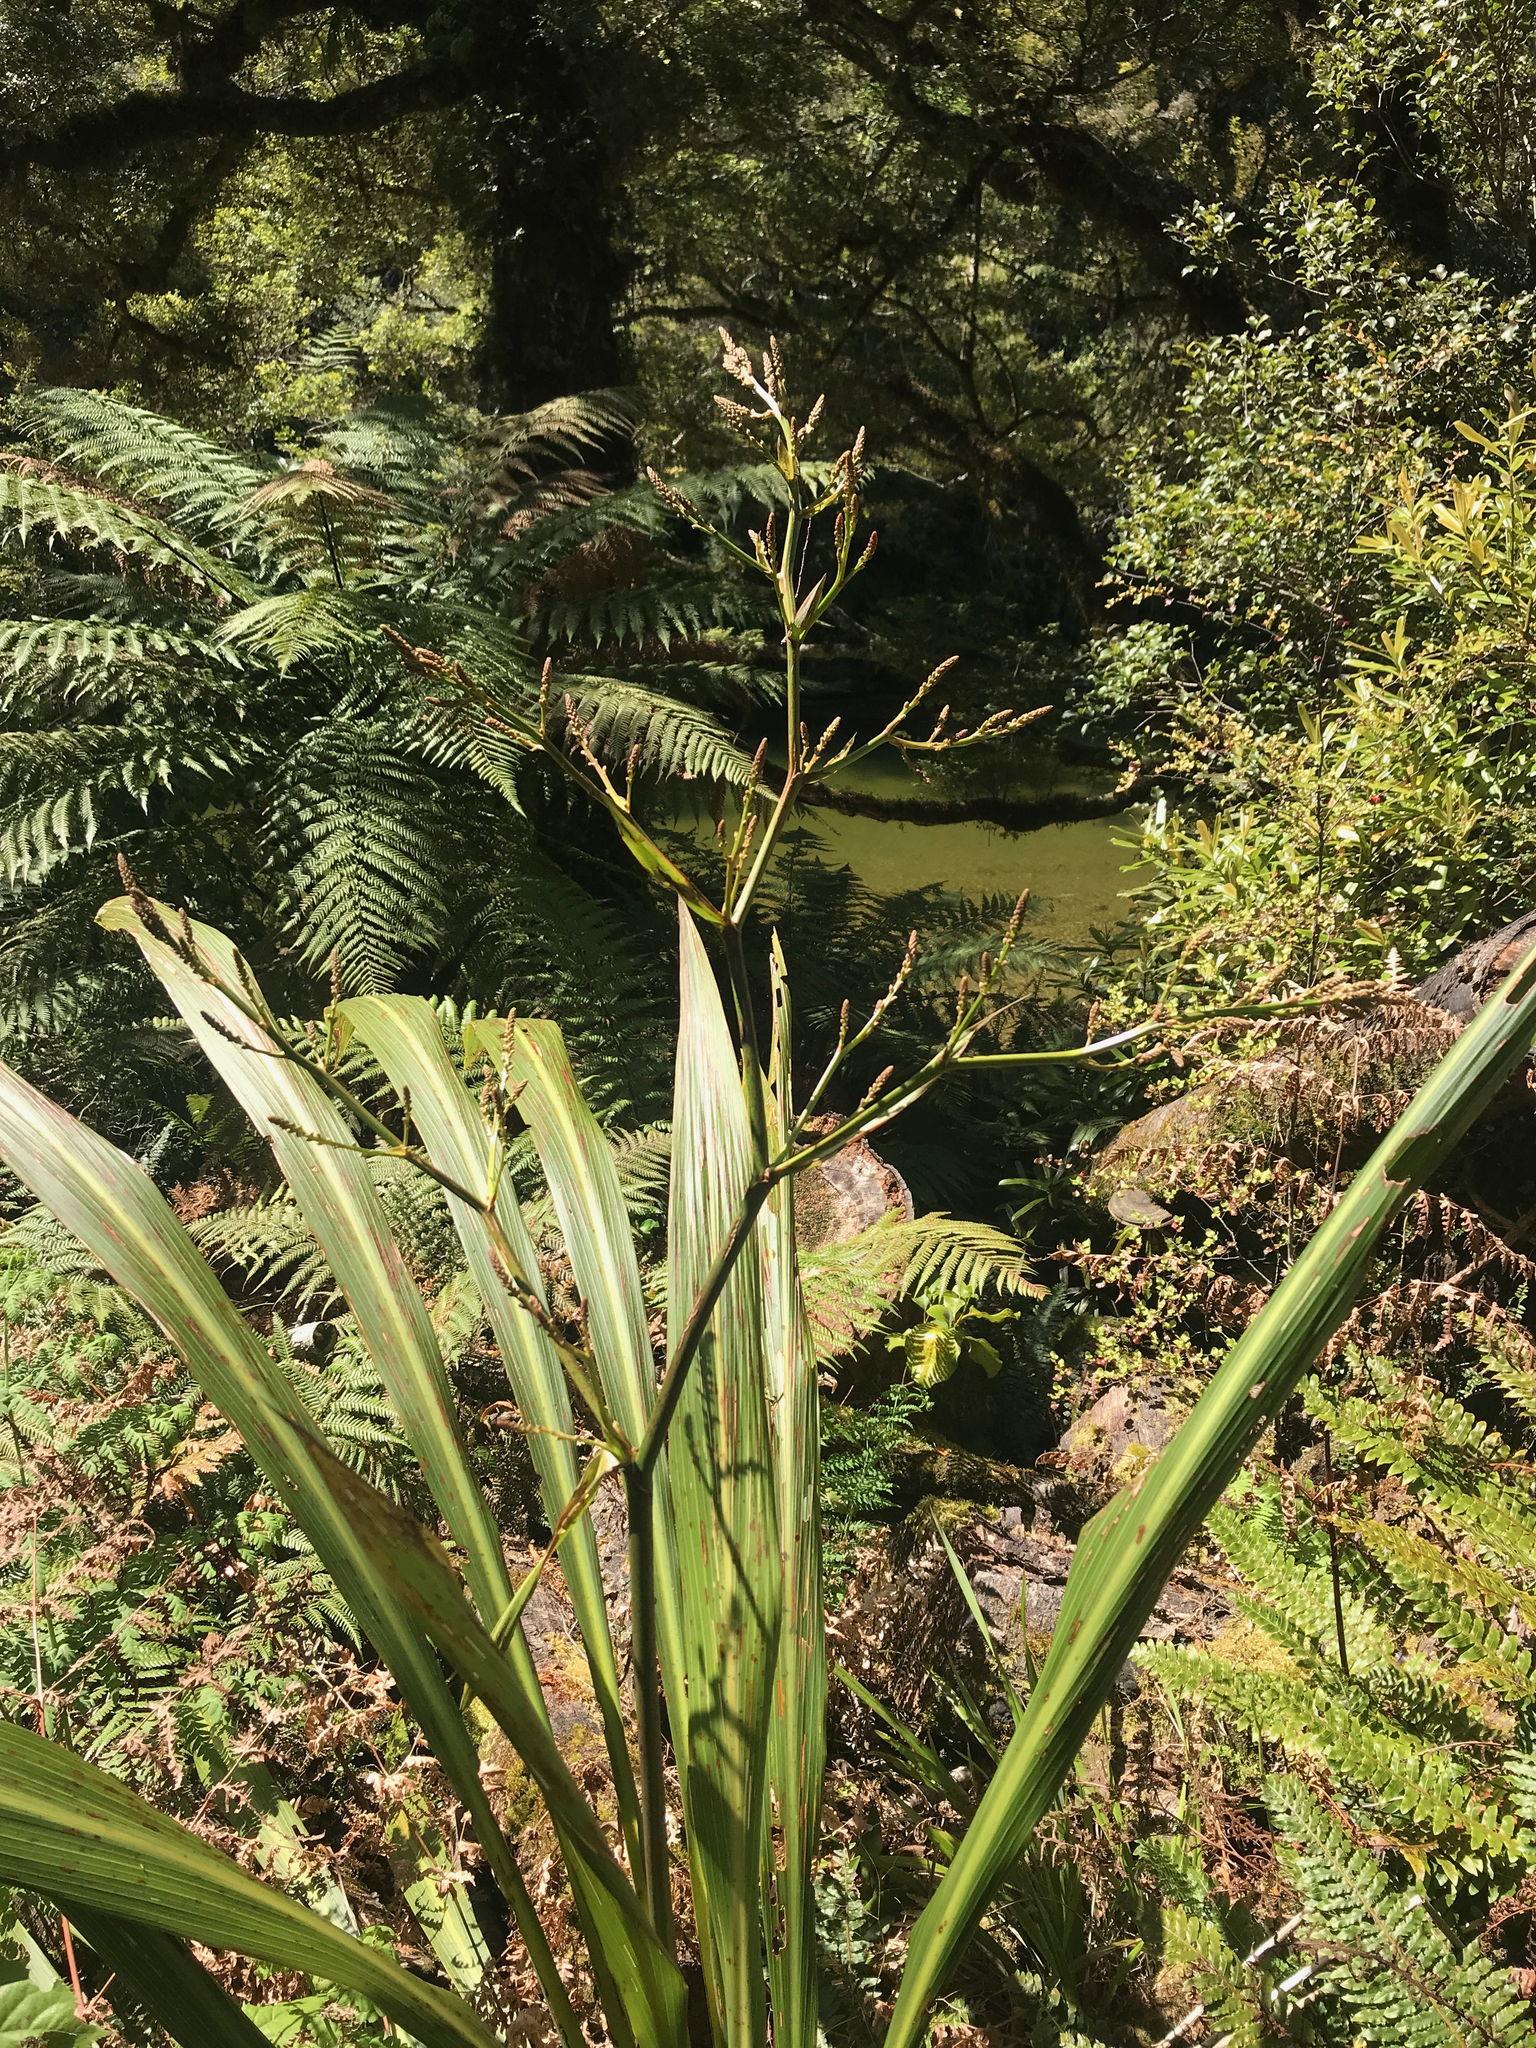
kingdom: Plantae
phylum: Tracheophyta
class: Liliopsida
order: Asparagales
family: Asparagaceae
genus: Cordyline
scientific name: Cordyline banksii
